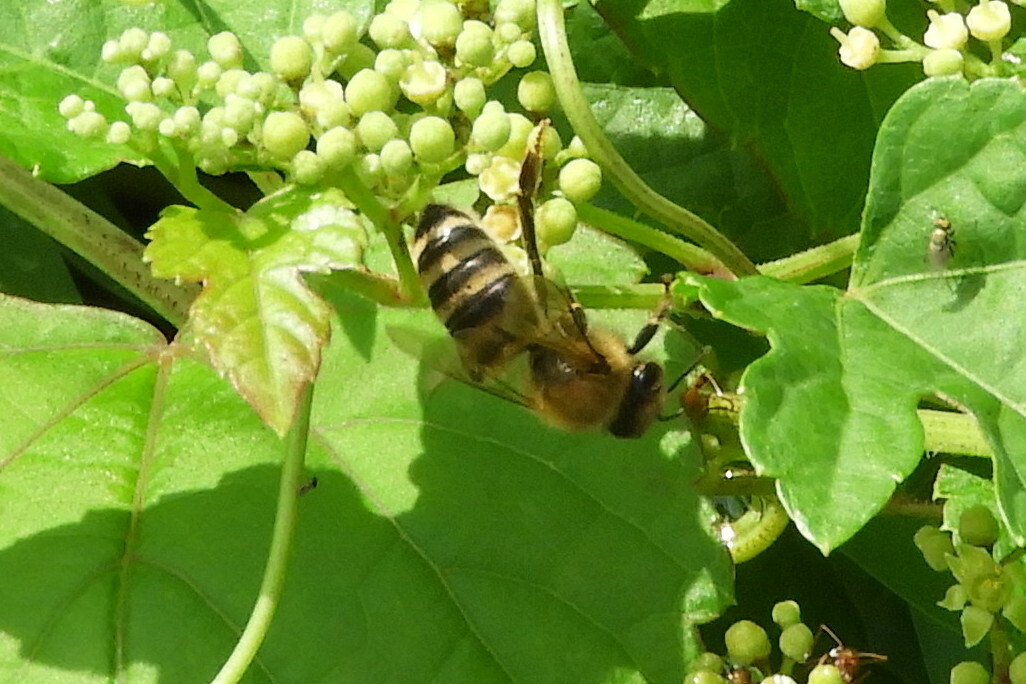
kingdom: Animalia
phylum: Arthropoda
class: Insecta
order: Hymenoptera
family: Apidae
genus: Apis
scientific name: Apis mellifera
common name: Honey bee
